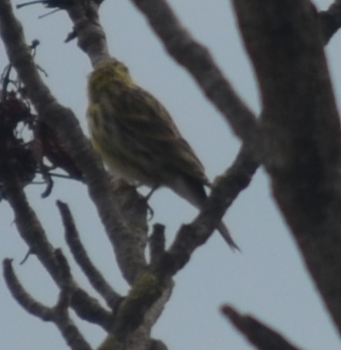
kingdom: Animalia
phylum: Chordata
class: Aves
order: Passeriformes
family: Fringillidae
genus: Serinus
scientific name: Serinus serinus
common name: European serin
